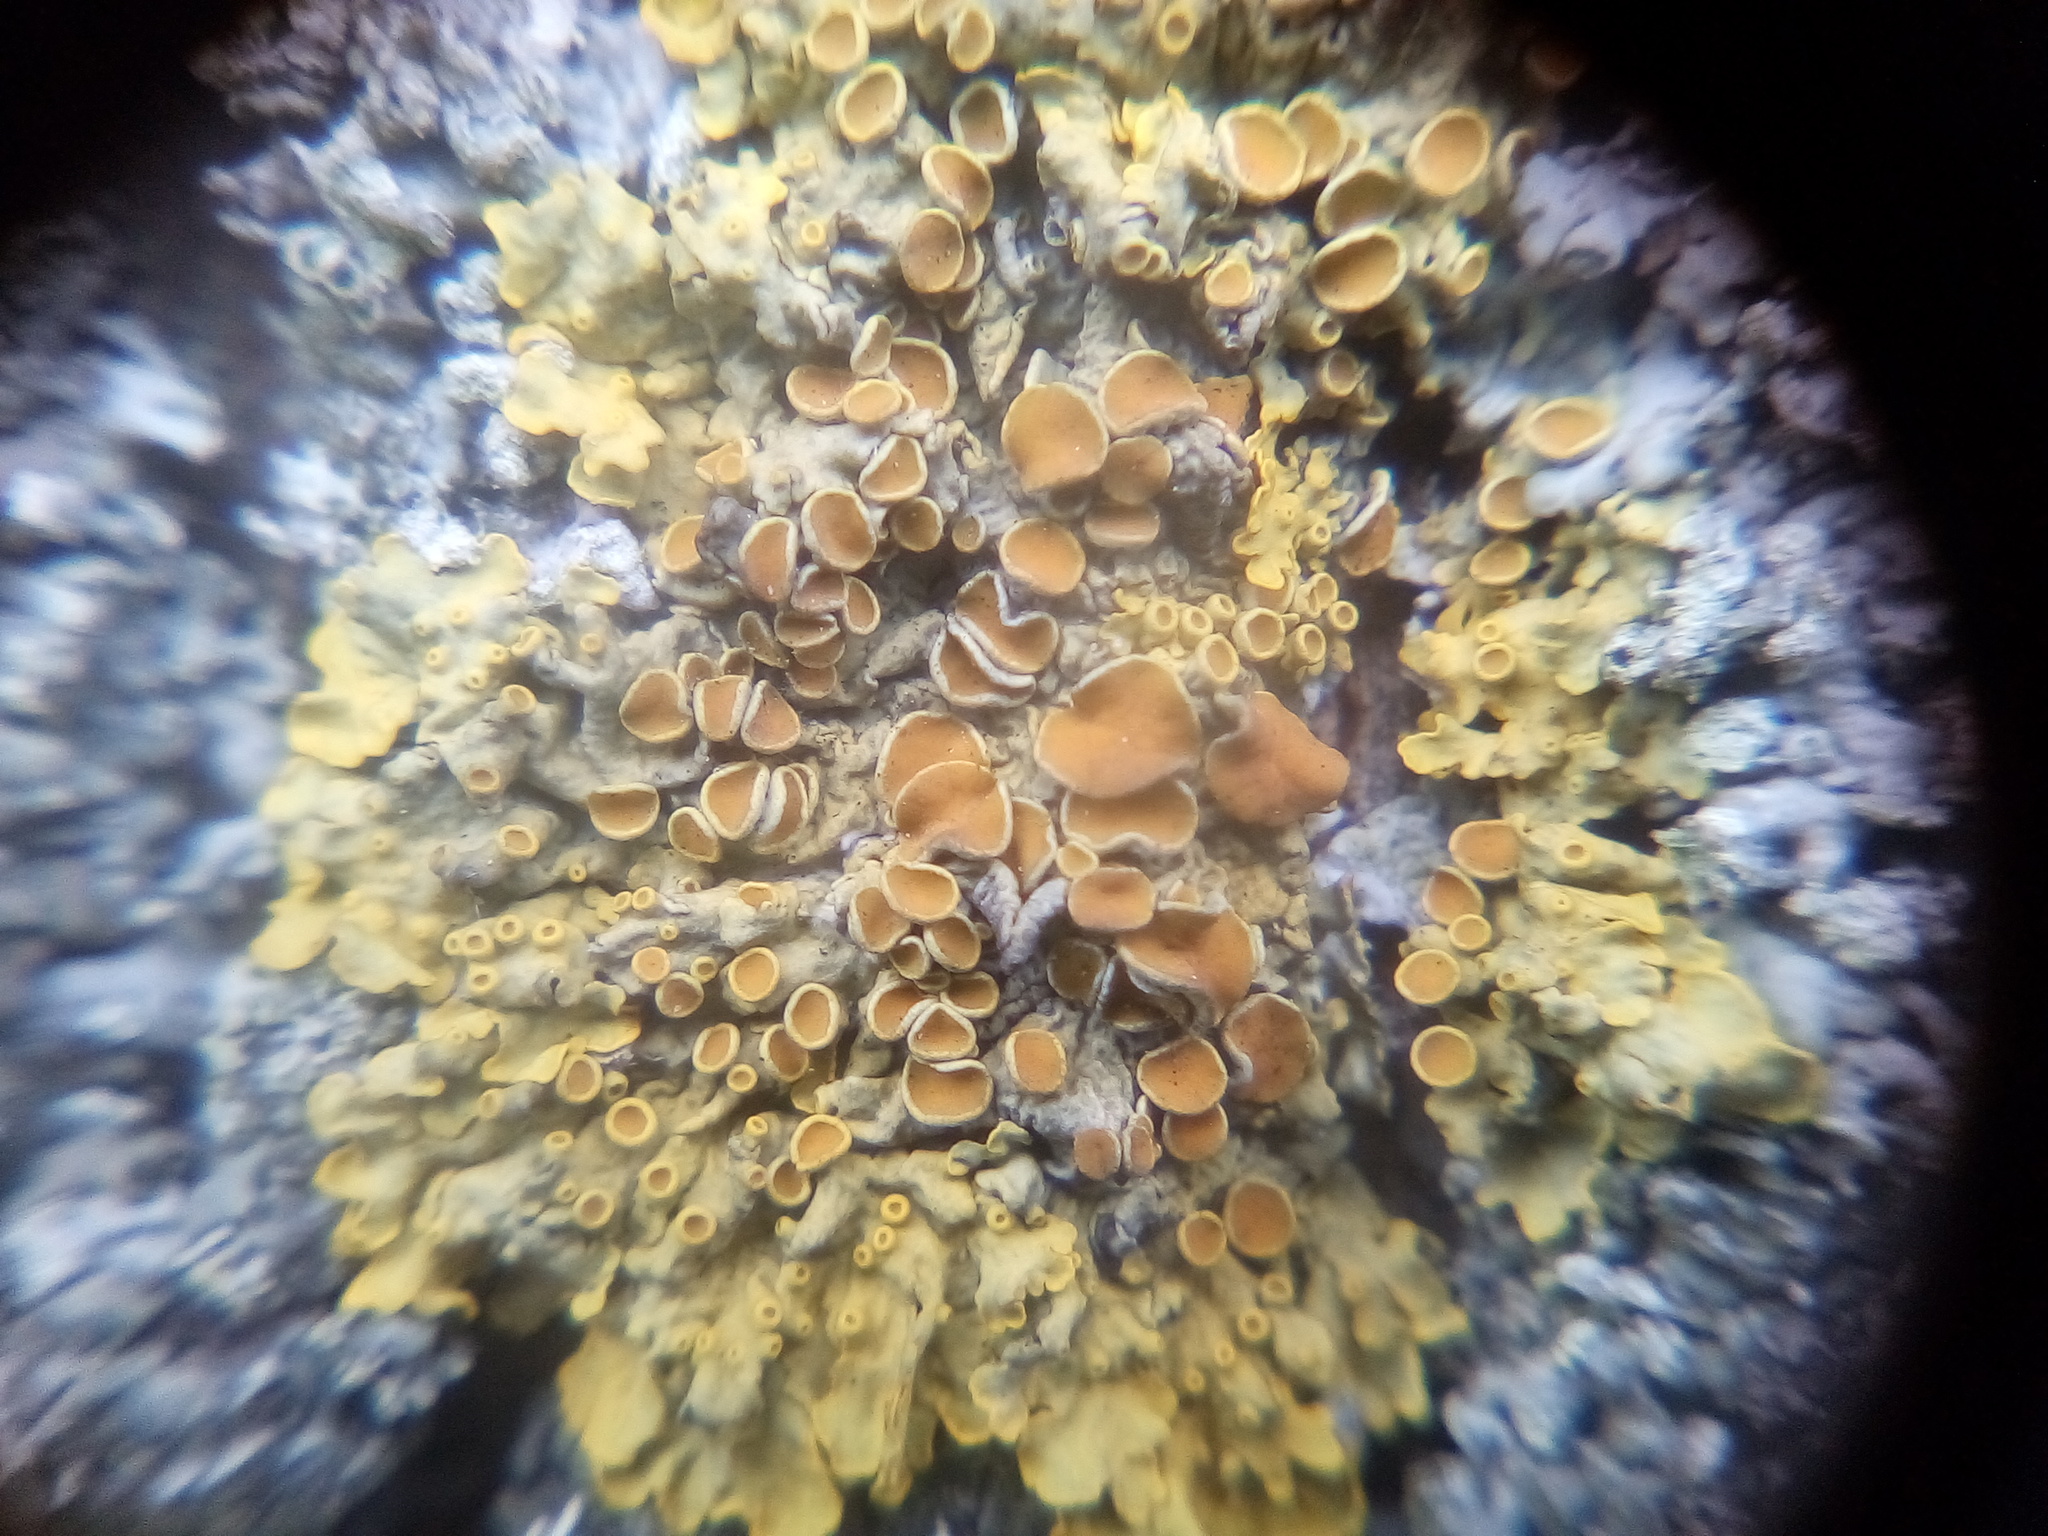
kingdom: Fungi
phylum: Ascomycota
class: Lecanoromycetes
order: Teloschistales
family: Teloschistaceae
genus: Xanthoria
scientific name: Xanthoria parietina
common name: Common orange lichen
